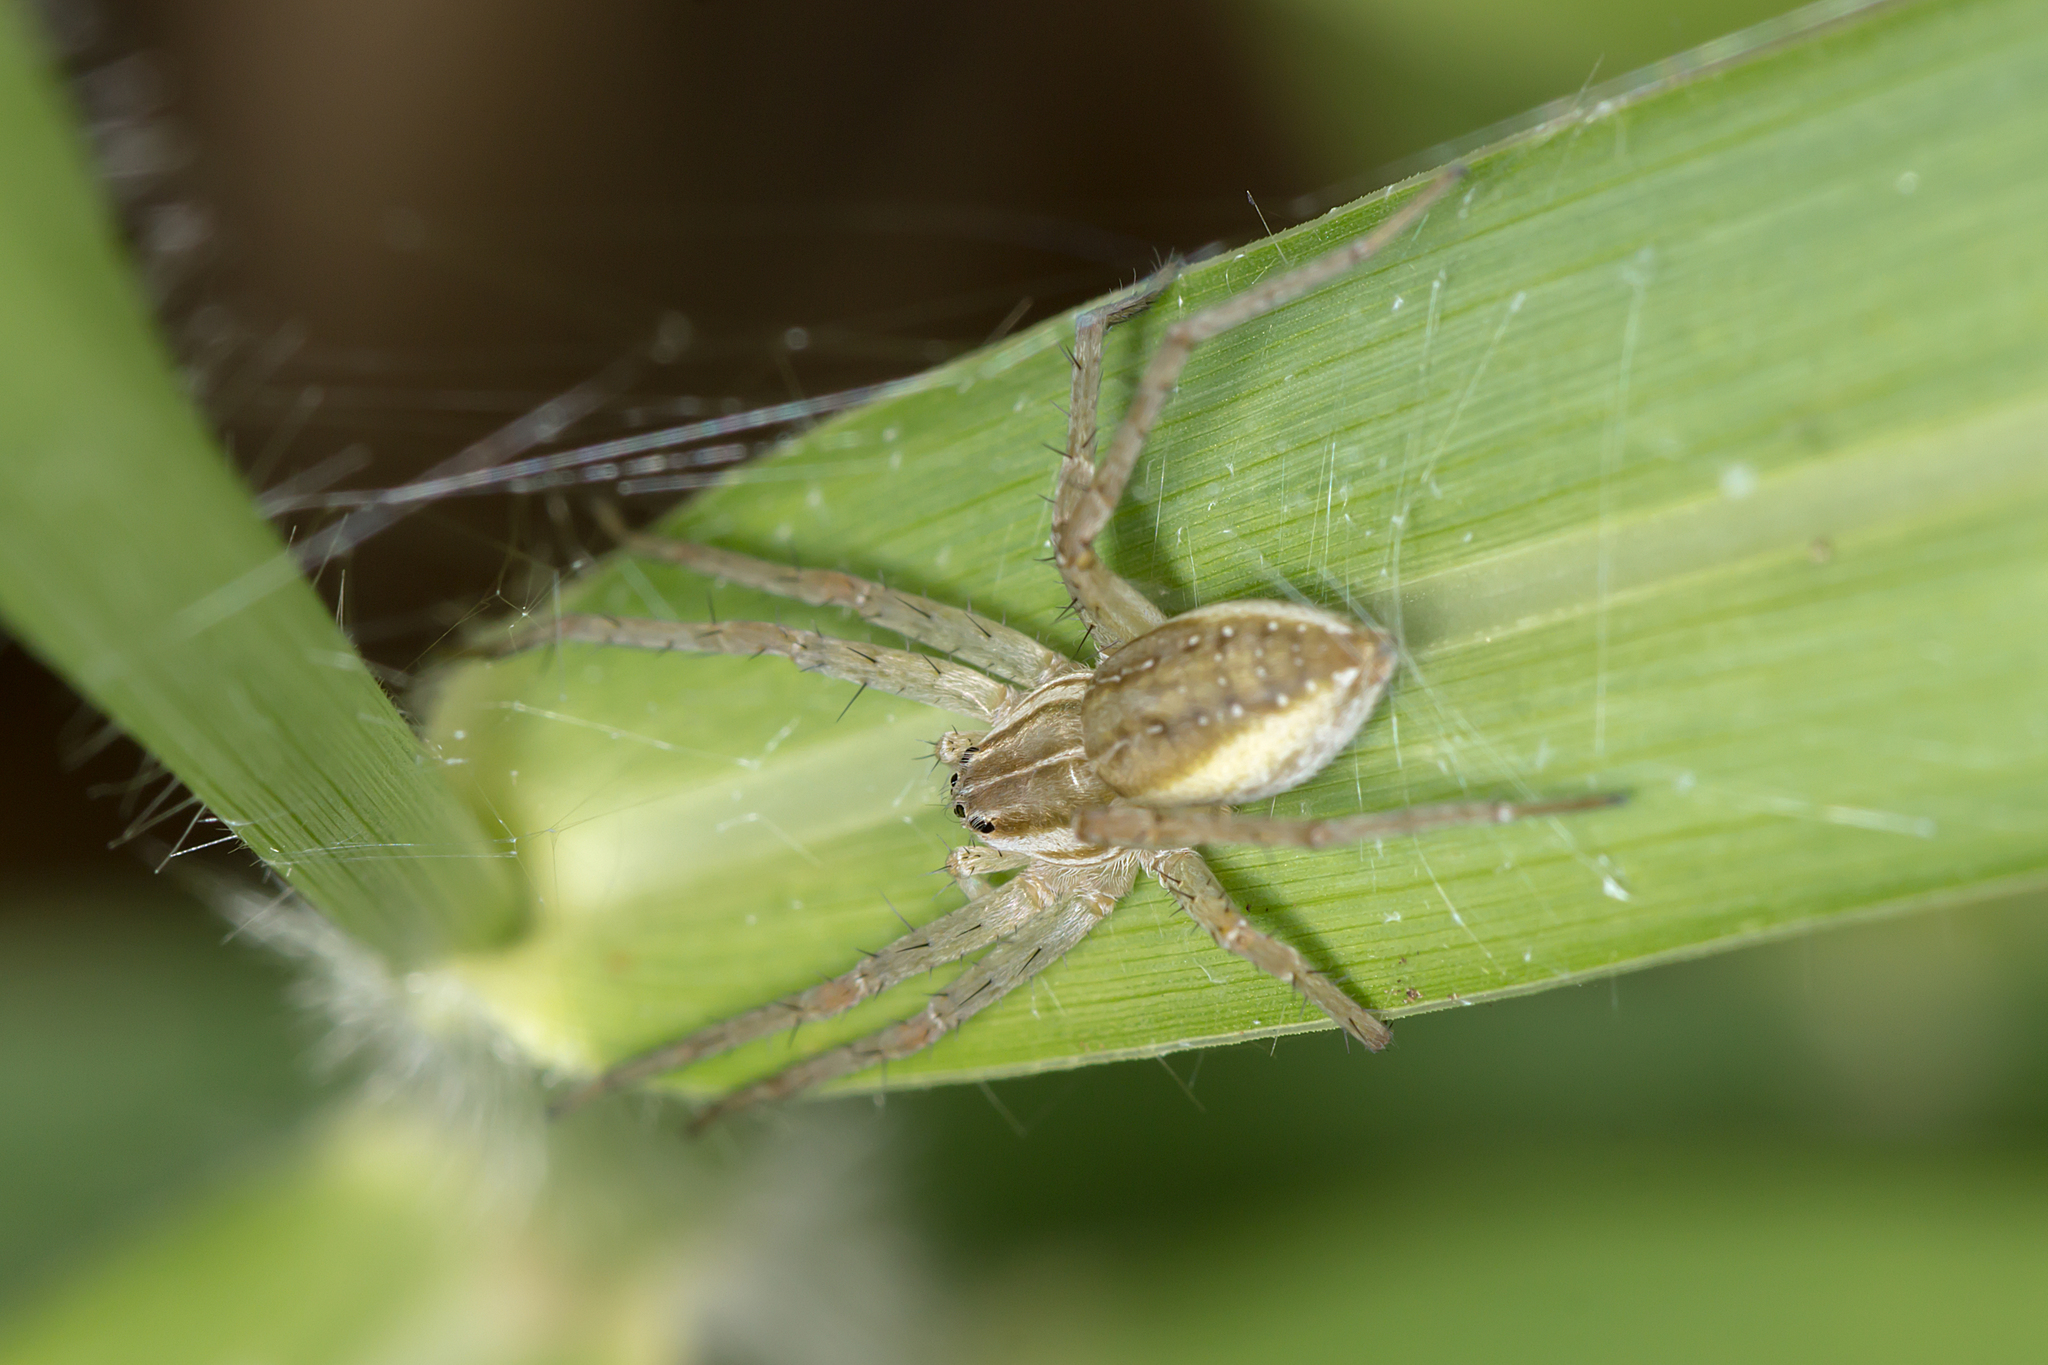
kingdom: Animalia
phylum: Arthropoda
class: Arachnida
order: Araneae
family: Pisauridae
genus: Dolomedes
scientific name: Dolomedes facetus
